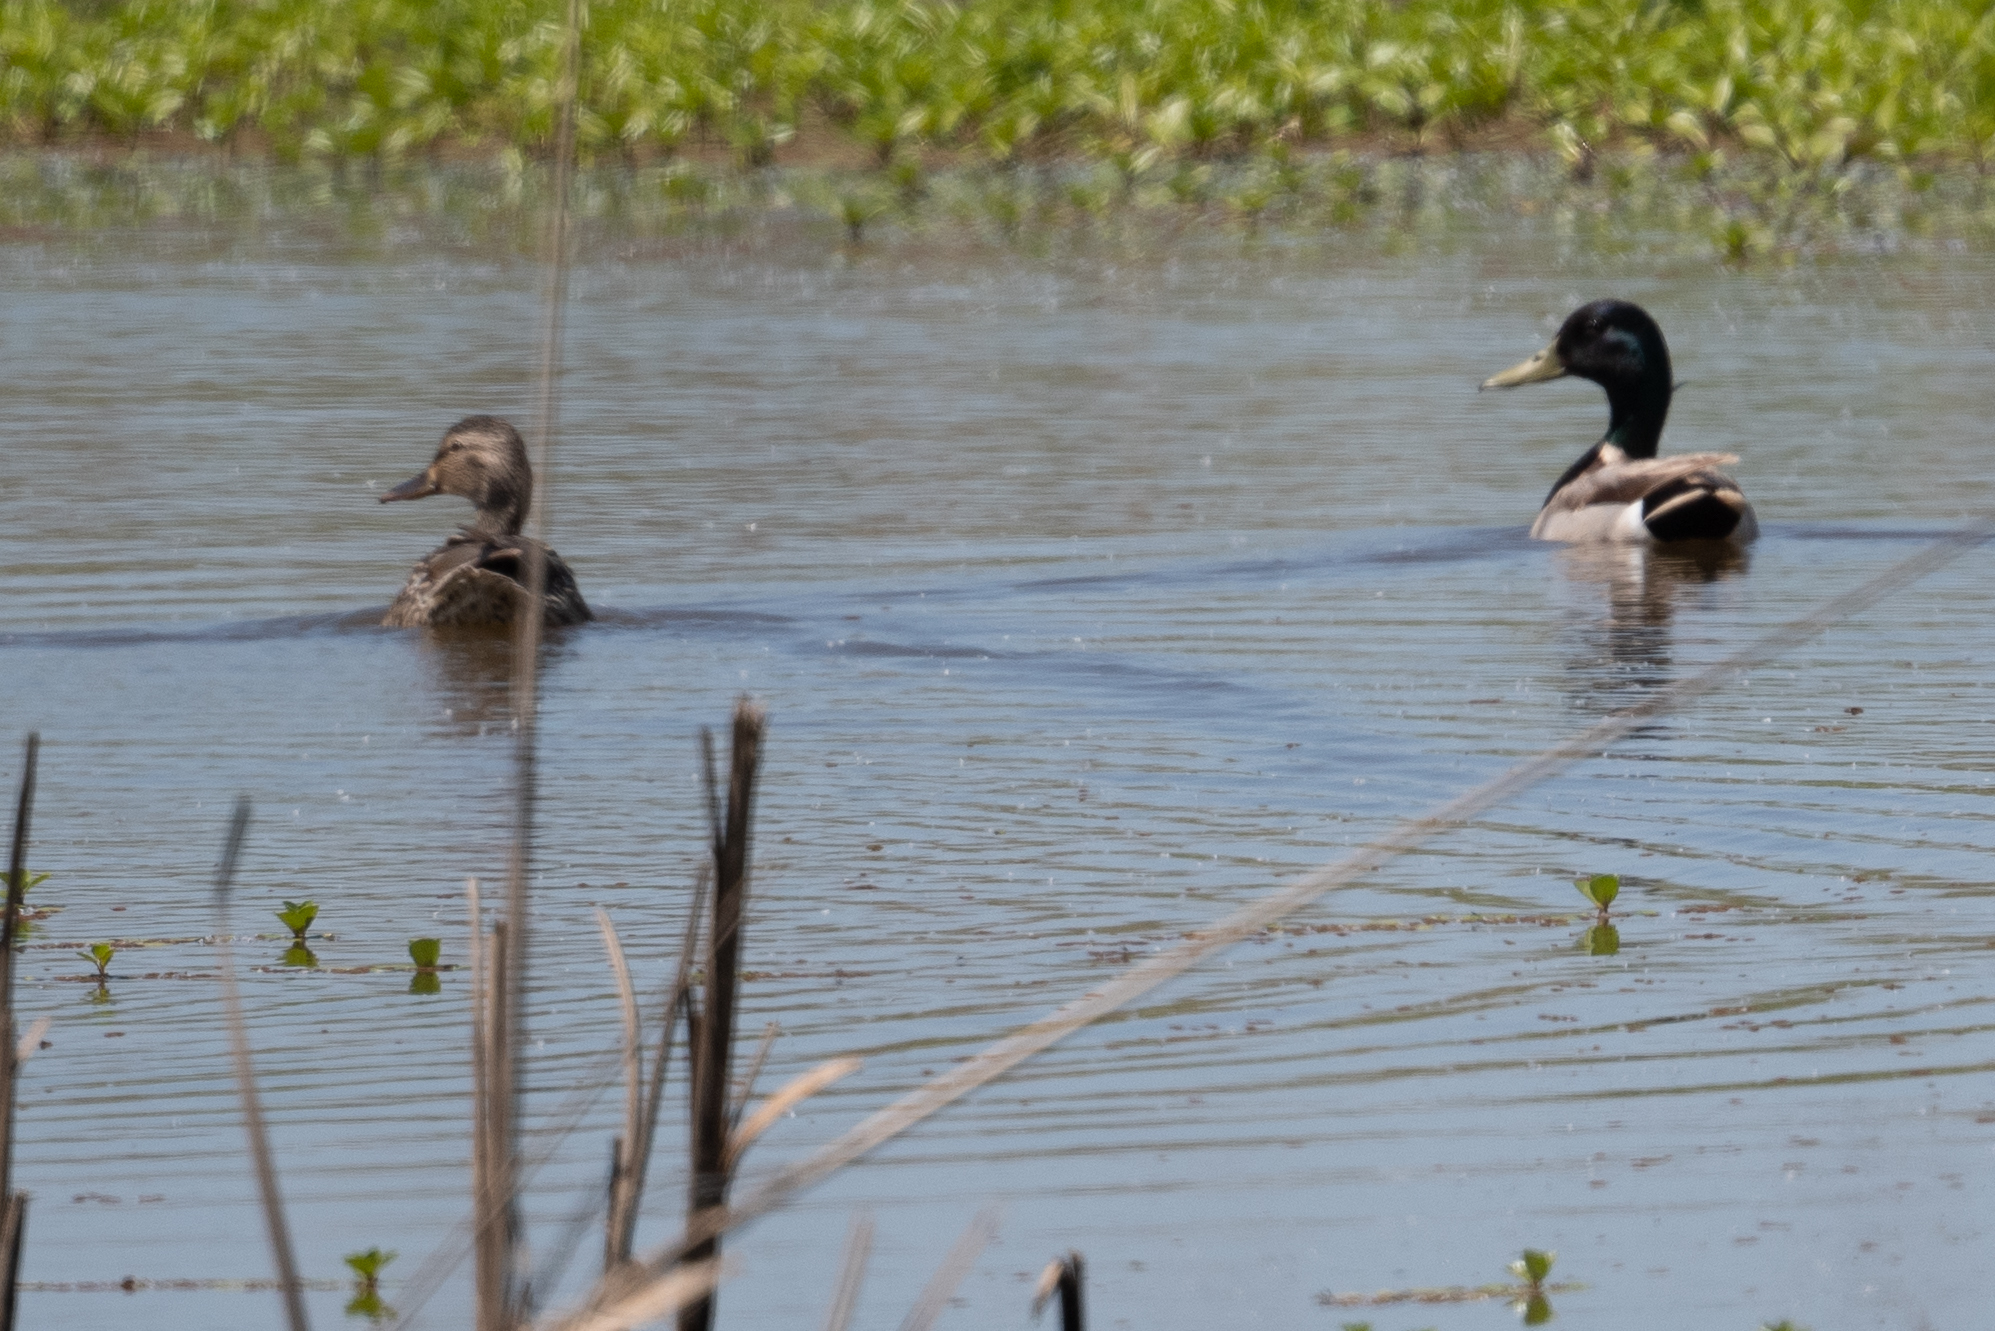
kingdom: Animalia
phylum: Chordata
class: Aves
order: Anseriformes
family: Anatidae
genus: Anas
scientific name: Anas platyrhynchos
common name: Mallard
